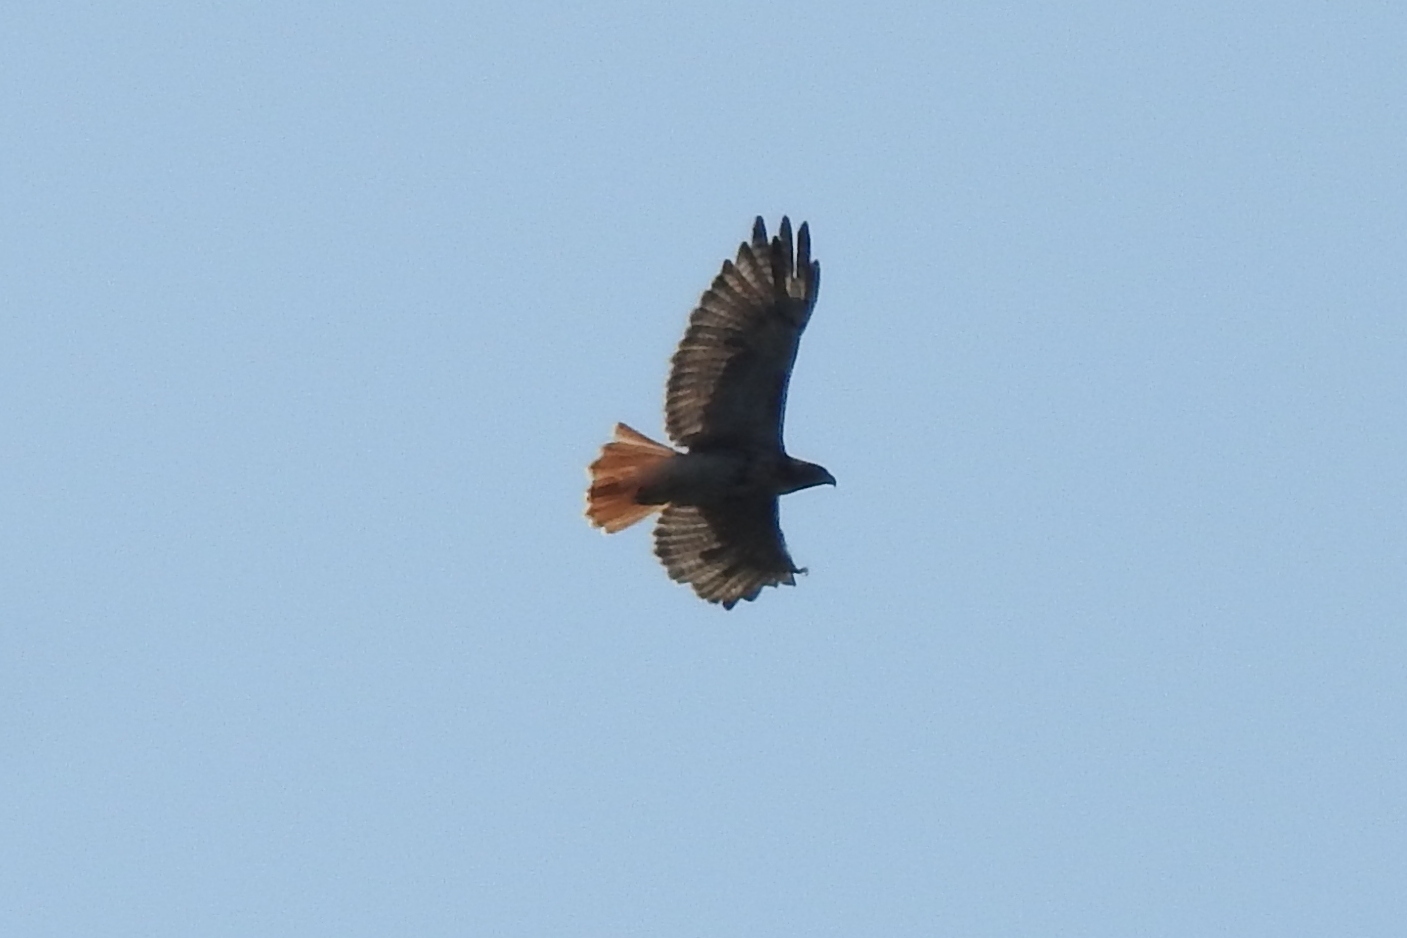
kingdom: Animalia
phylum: Chordata
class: Aves
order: Accipitriformes
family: Accipitridae
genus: Buteo
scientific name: Buteo jamaicensis
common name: Red-tailed hawk
